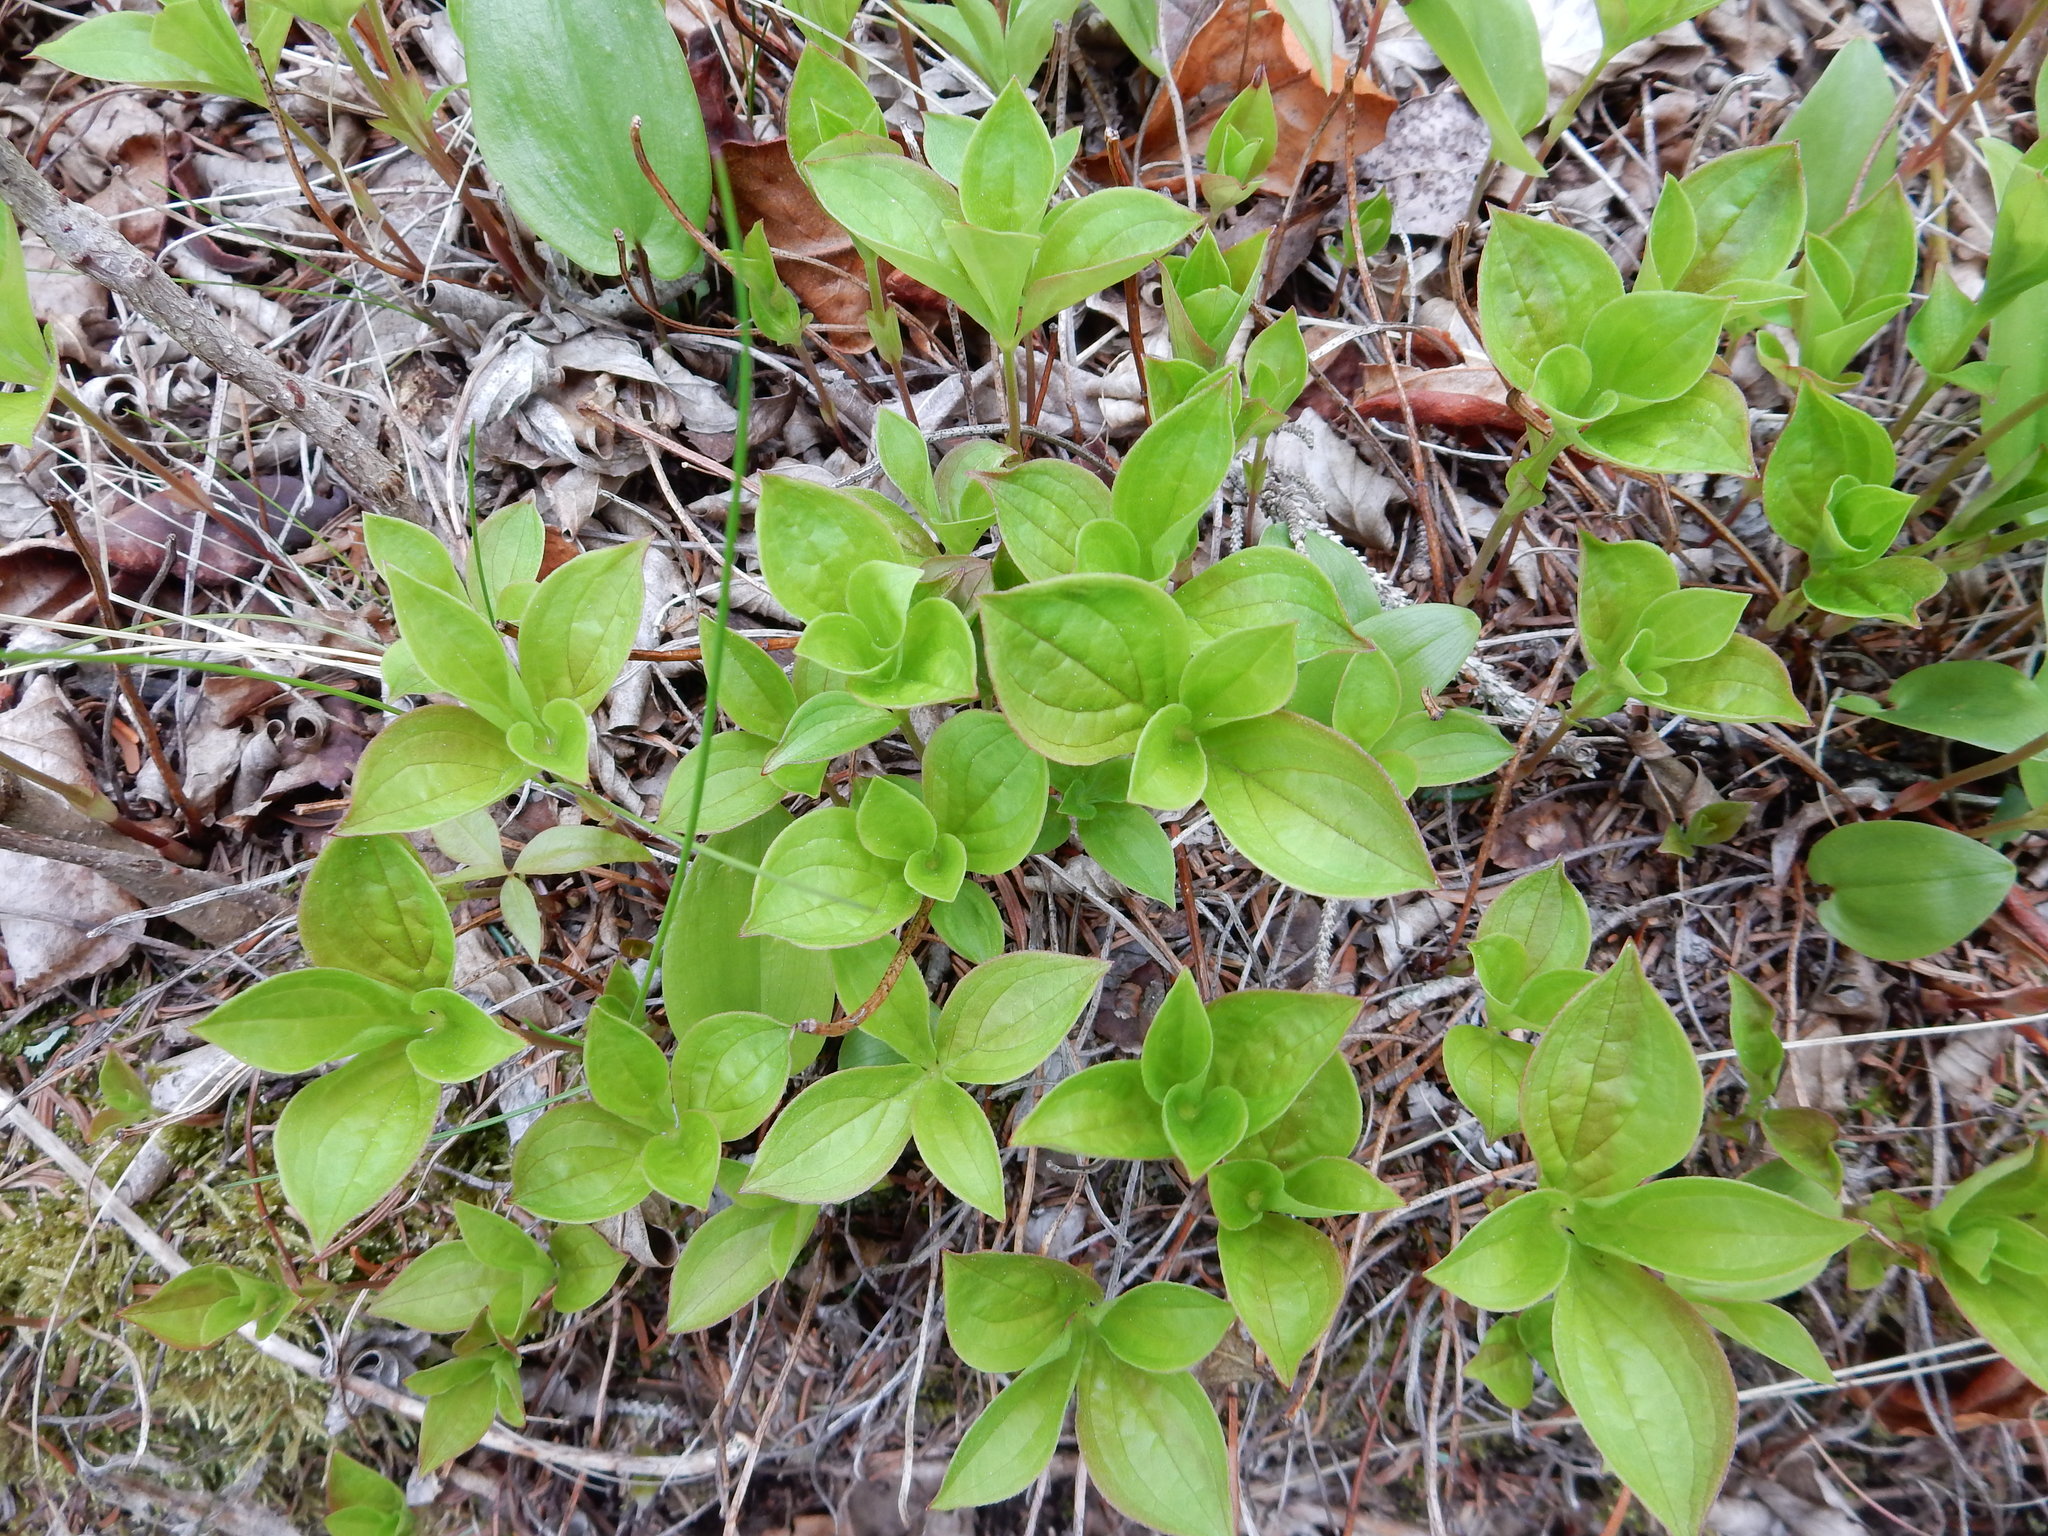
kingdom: Plantae
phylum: Tracheophyta
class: Magnoliopsida
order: Cornales
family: Cornaceae
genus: Cornus
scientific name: Cornus canadensis
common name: Creeping dogwood
